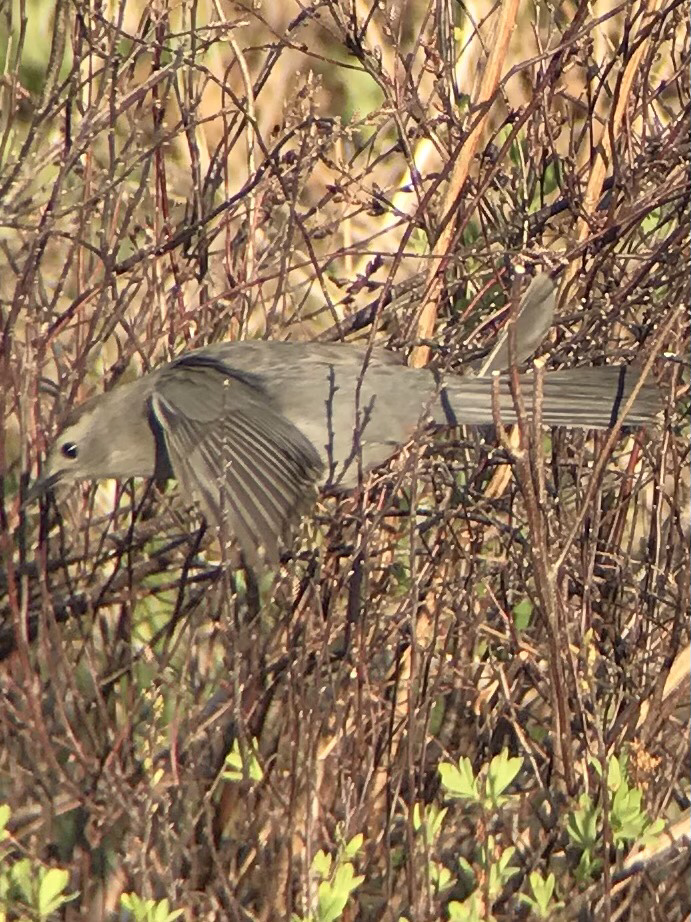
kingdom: Animalia
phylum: Chordata
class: Aves
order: Passeriformes
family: Mimidae
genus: Dumetella
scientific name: Dumetella carolinensis
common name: Gray catbird
